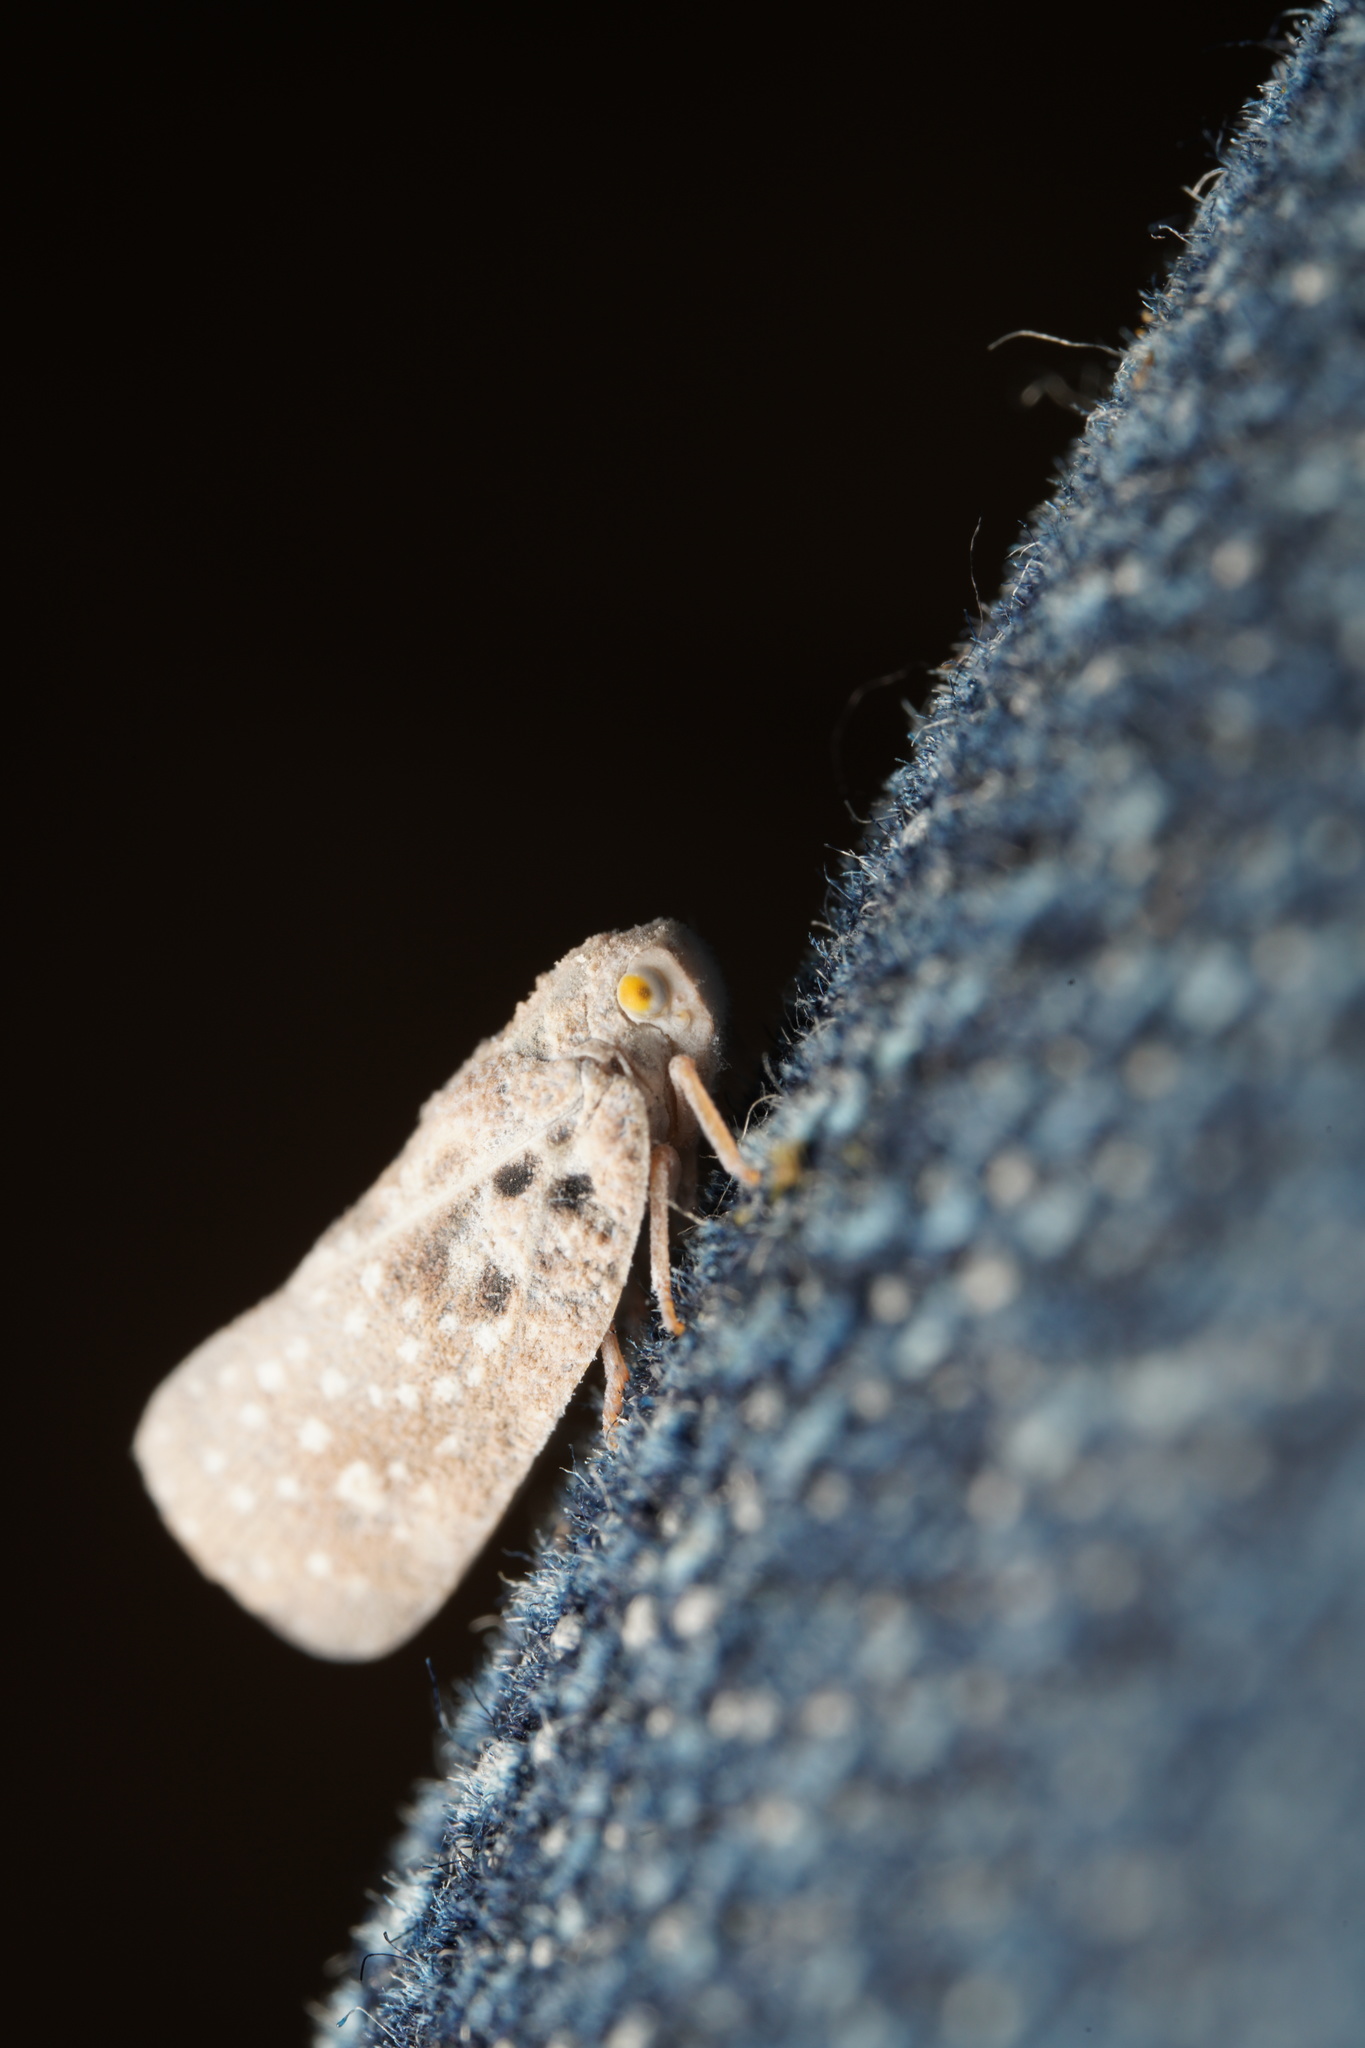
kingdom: Animalia
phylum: Arthropoda
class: Insecta
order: Hemiptera
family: Flatidae
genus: Metcalfa
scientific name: Metcalfa pruinosa
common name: Citrus flatid planthopper
